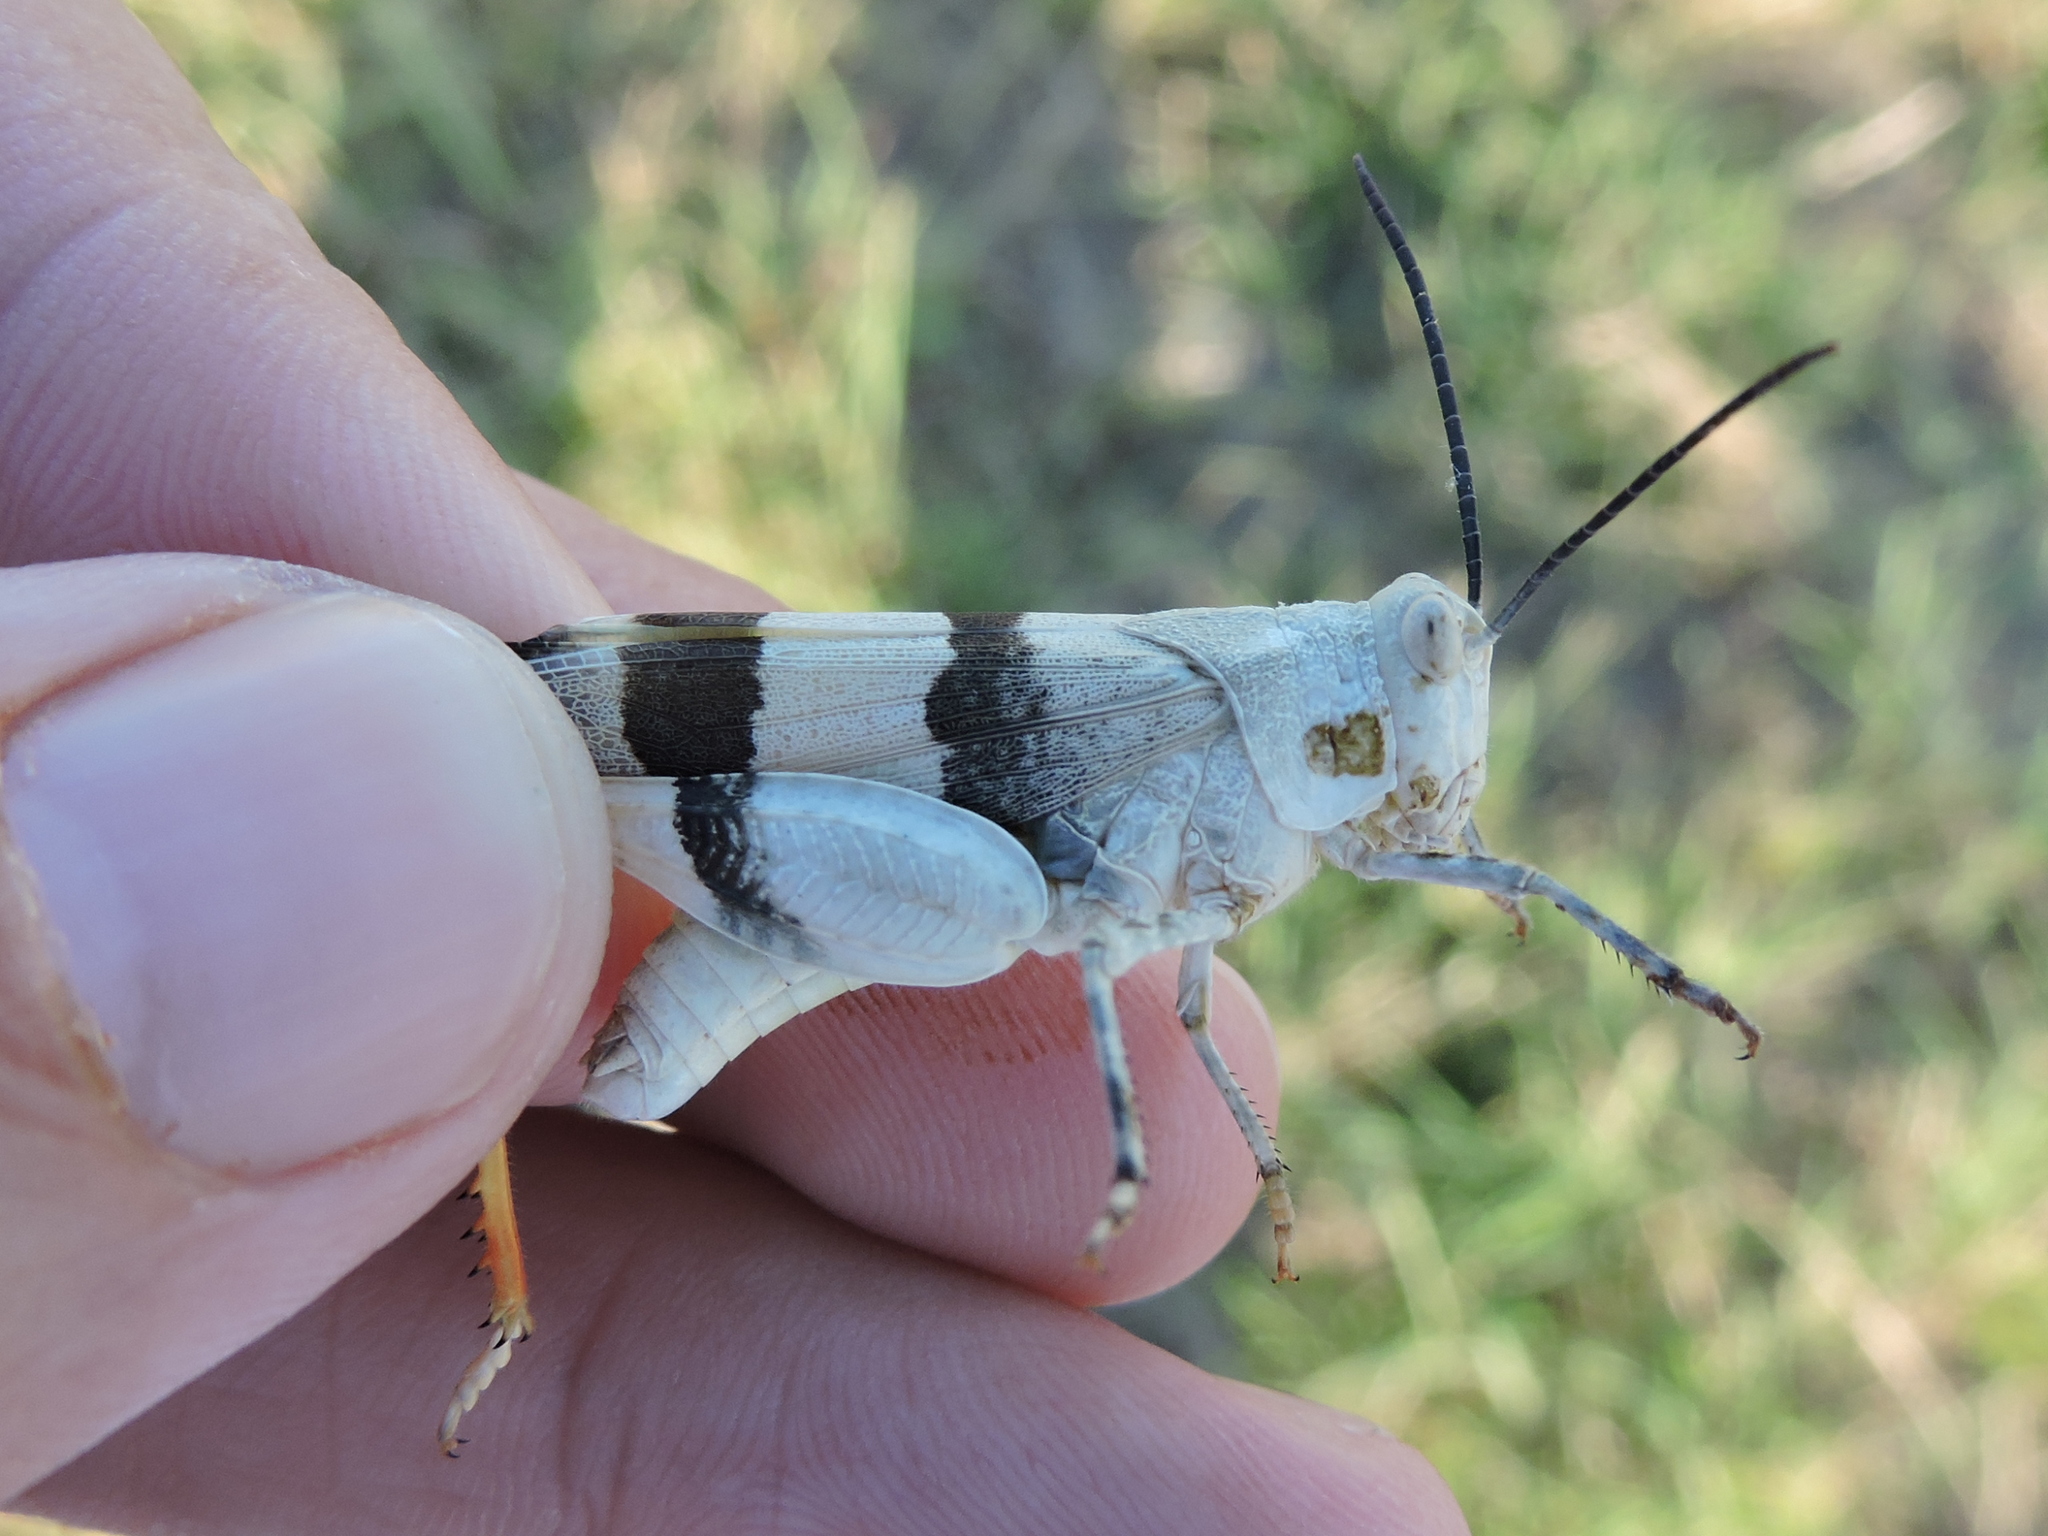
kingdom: Animalia
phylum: Arthropoda
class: Insecta
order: Orthoptera
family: Acrididae
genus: Hadrotettix
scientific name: Hadrotettix trifasciatus
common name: Threebanded grasshopper
